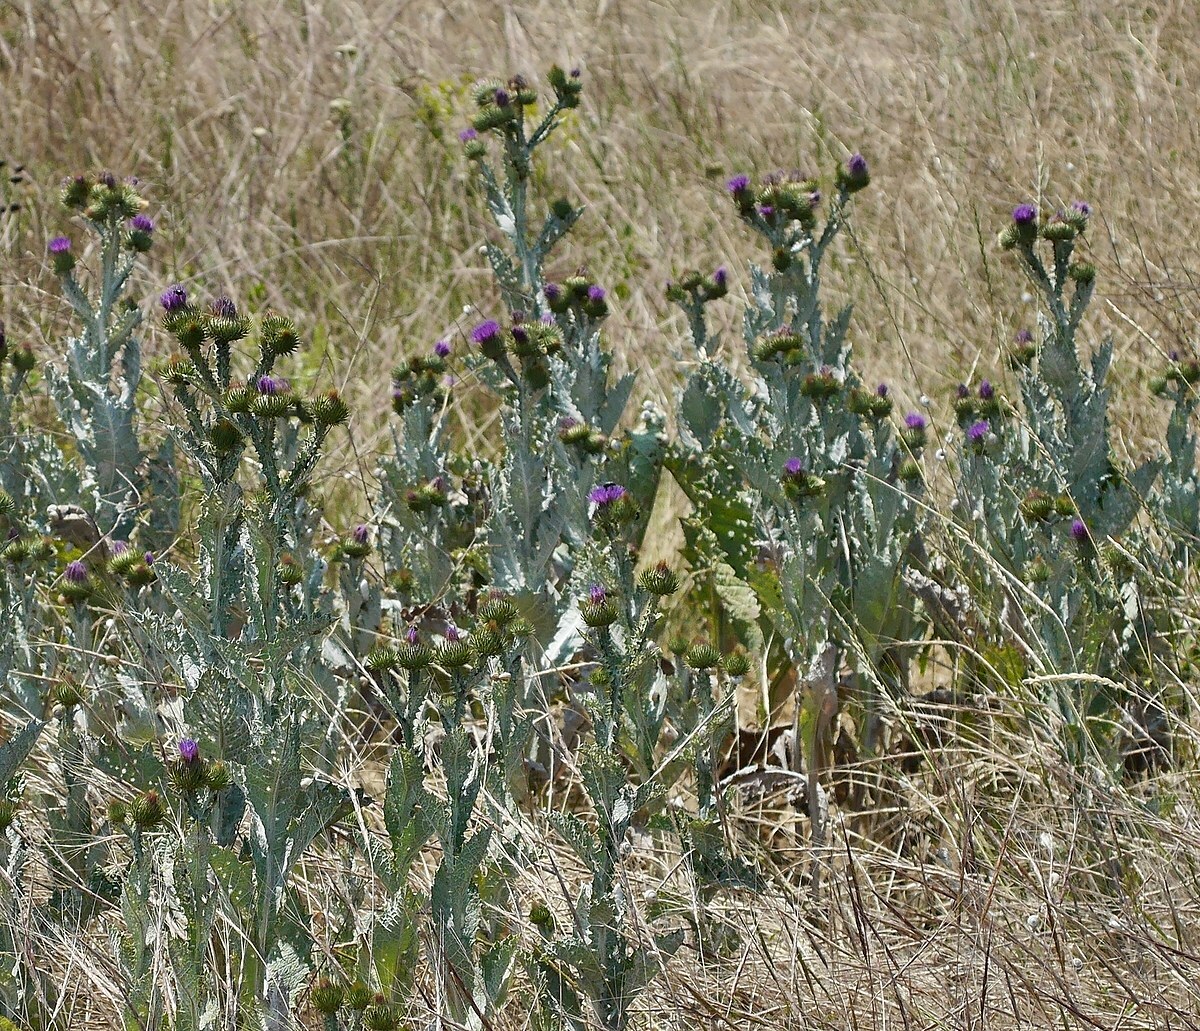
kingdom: Plantae
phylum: Tracheophyta
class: Magnoliopsida
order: Asterales
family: Asteraceae
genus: Onopordum
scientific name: Onopordum acanthium
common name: Scotch thistle
